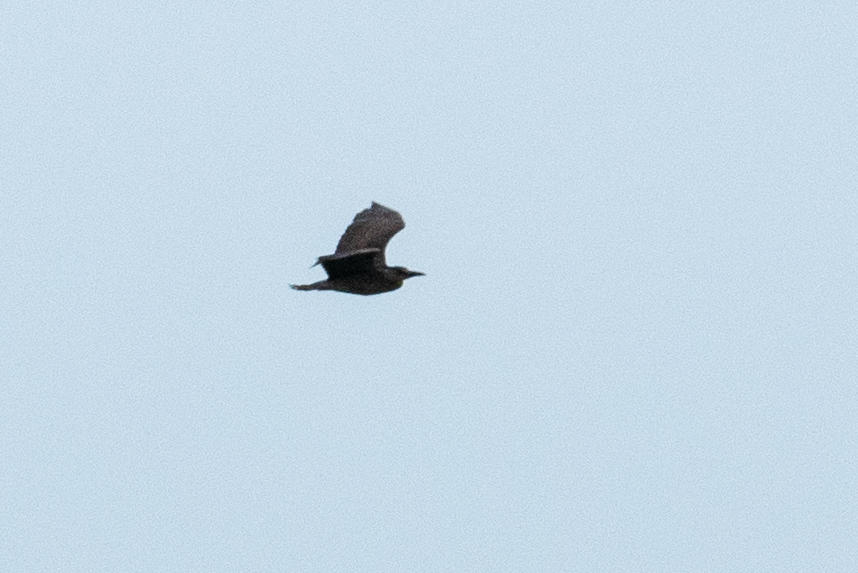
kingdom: Animalia
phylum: Chordata
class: Aves
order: Pelecaniformes
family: Ardeidae
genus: Nycticorax
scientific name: Nycticorax nycticorax
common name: Black-crowned night heron
